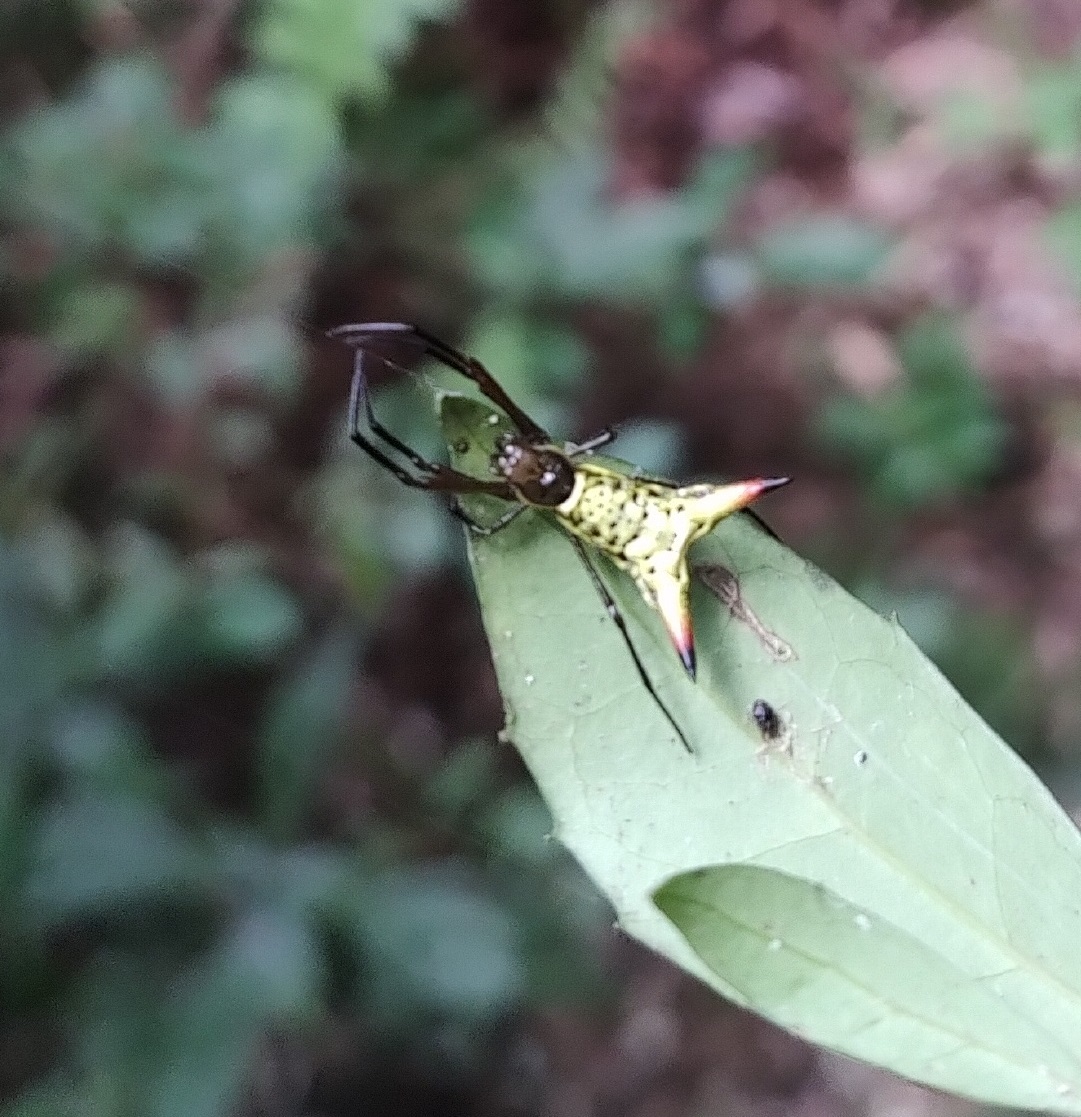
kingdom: Animalia
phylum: Arthropoda
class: Arachnida
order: Araneae
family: Araneidae
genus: Micrathena
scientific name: Micrathena crassispina
